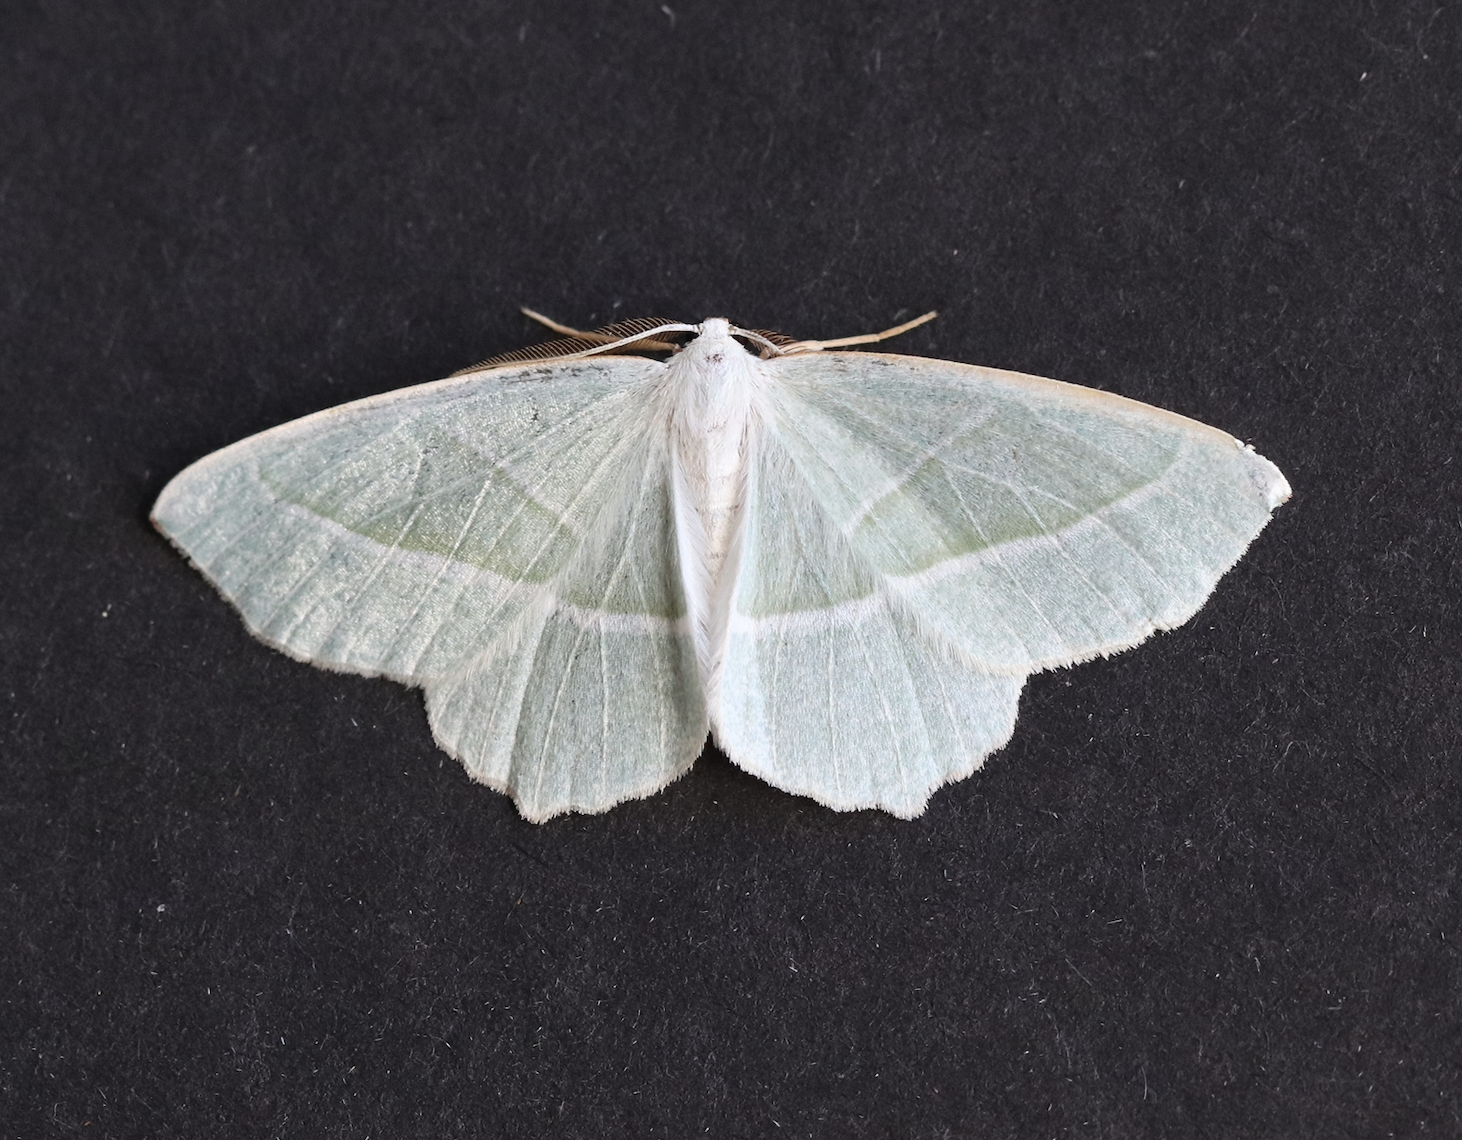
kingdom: Animalia
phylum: Arthropoda
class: Insecta
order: Lepidoptera
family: Geometridae
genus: Campaea
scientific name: Campaea margaritaria
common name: Light emerald
